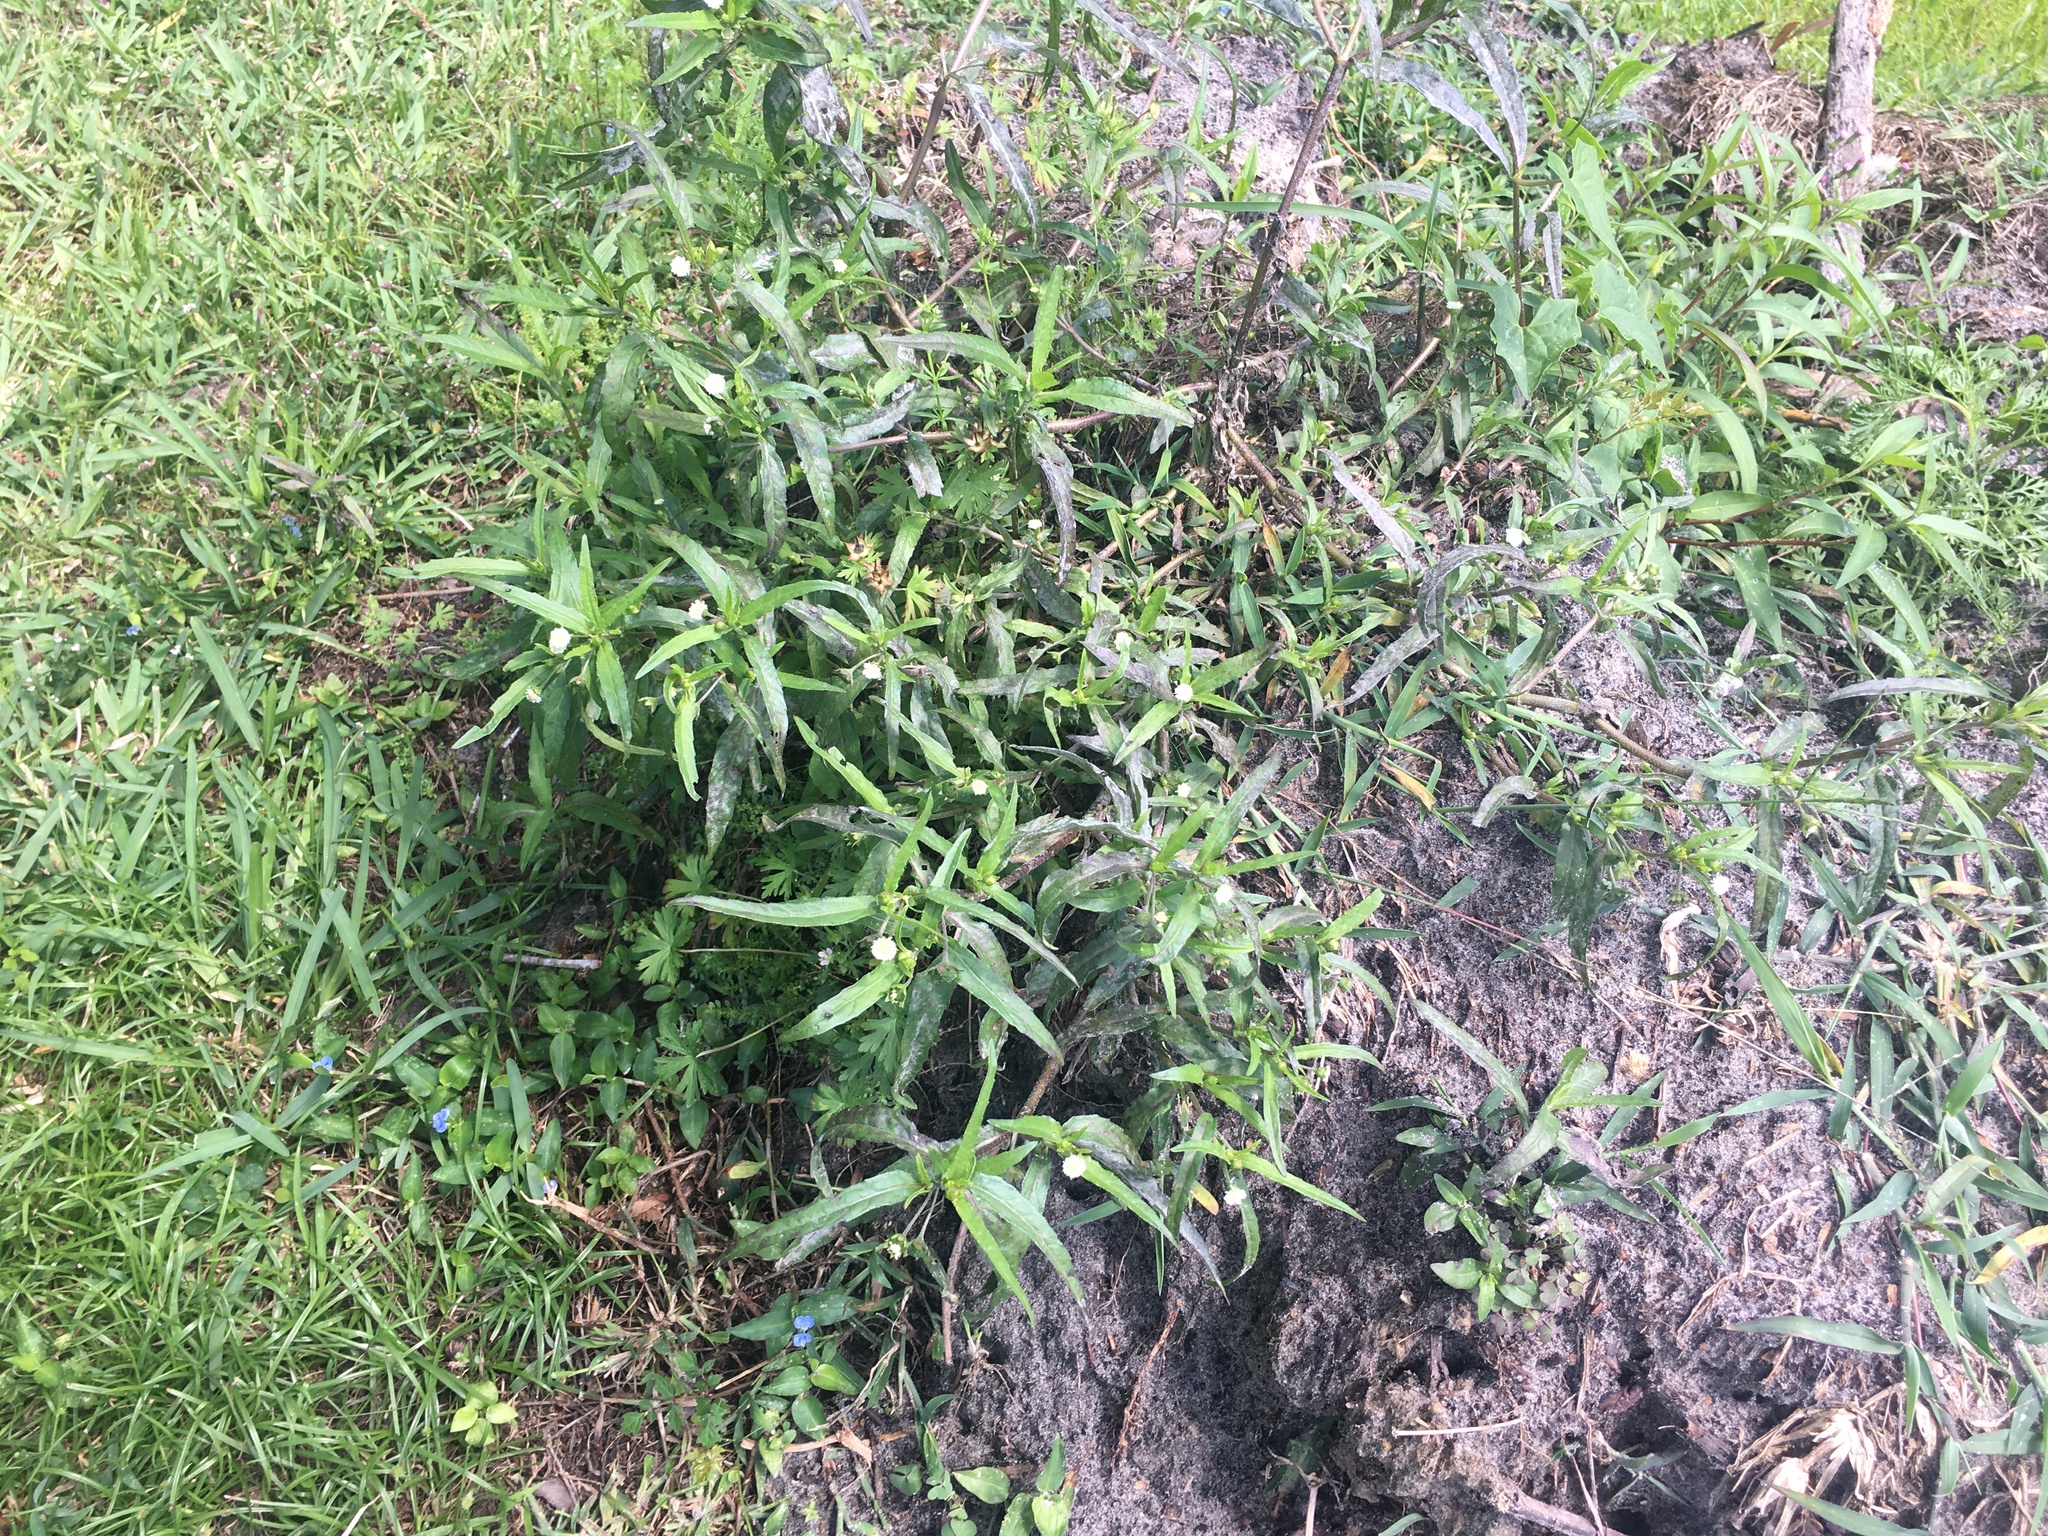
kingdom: Plantae
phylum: Tracheophyta
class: Magnoliopsida
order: Asterales
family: Asteraceae
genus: Eclipta
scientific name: Eclipta prostrata
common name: False daisy
